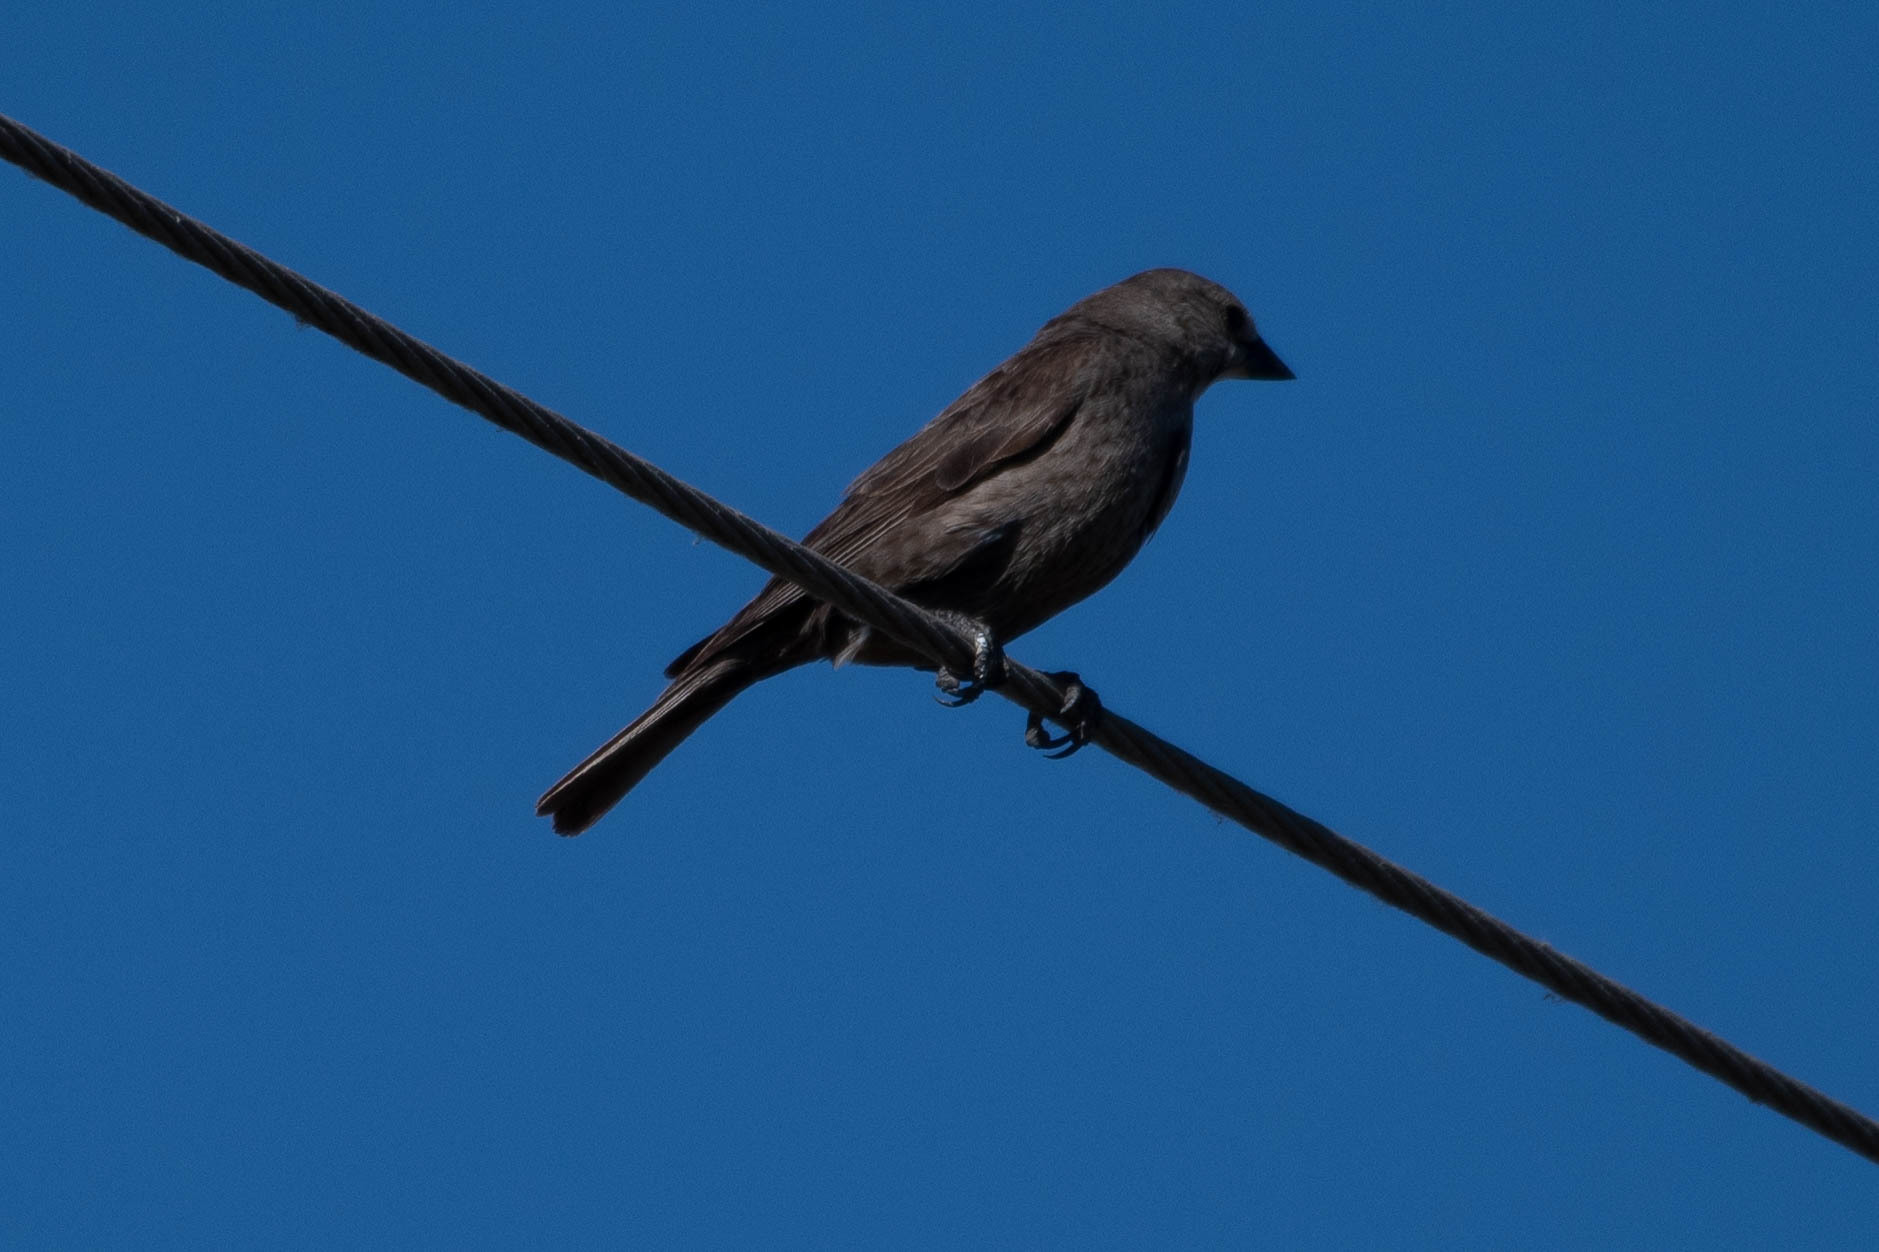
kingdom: Animalia
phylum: Chordata
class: Aves
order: Passeriformes
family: Icteridae
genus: Molothrus
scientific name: Molothrus ater
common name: Brown-headed cowbird
